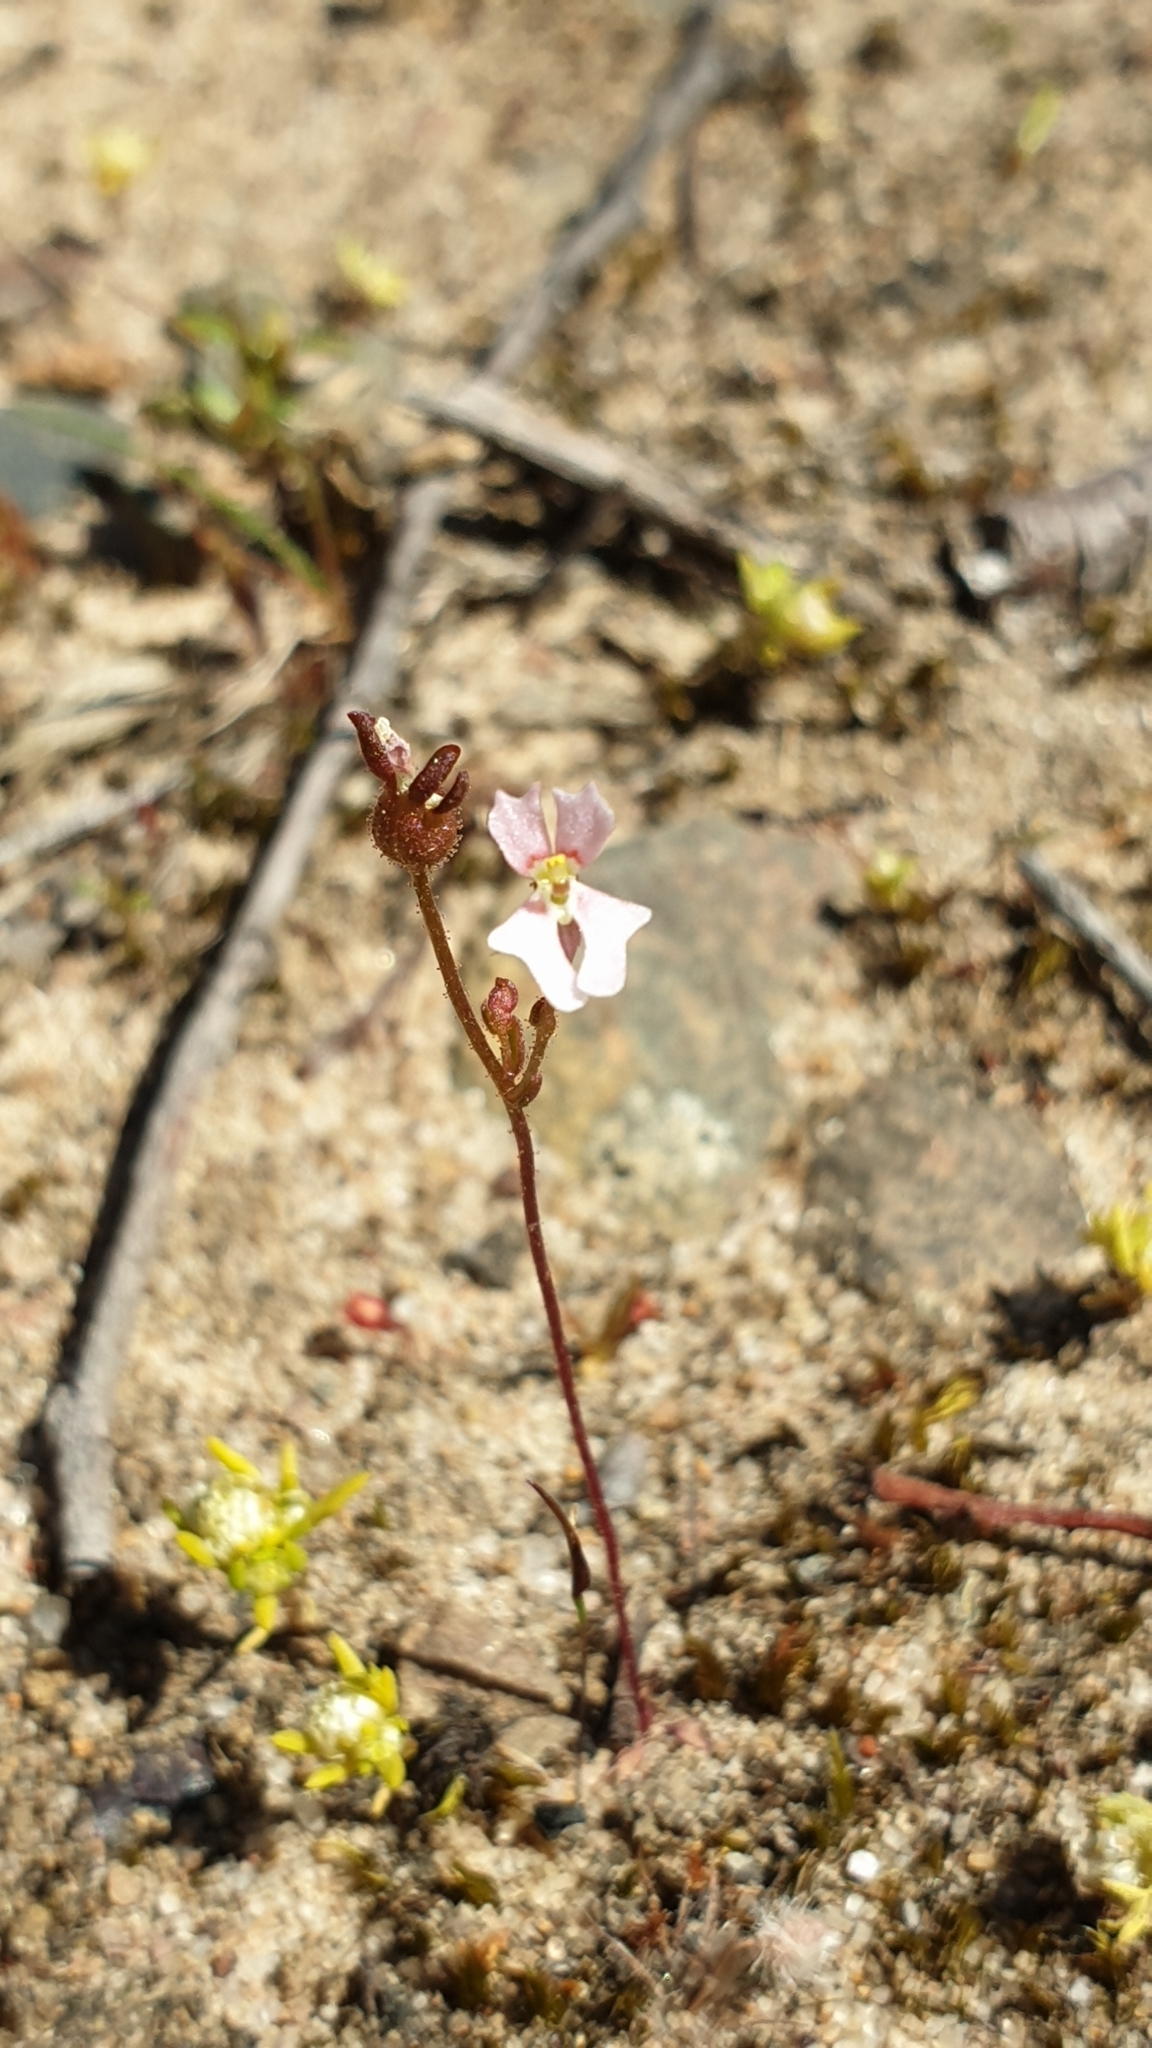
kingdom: Plantae
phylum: Tracheophyta
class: Magnoliopsida
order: Asterales
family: Stylidiaceae
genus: Stylidium
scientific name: Stylidium calcaratum
